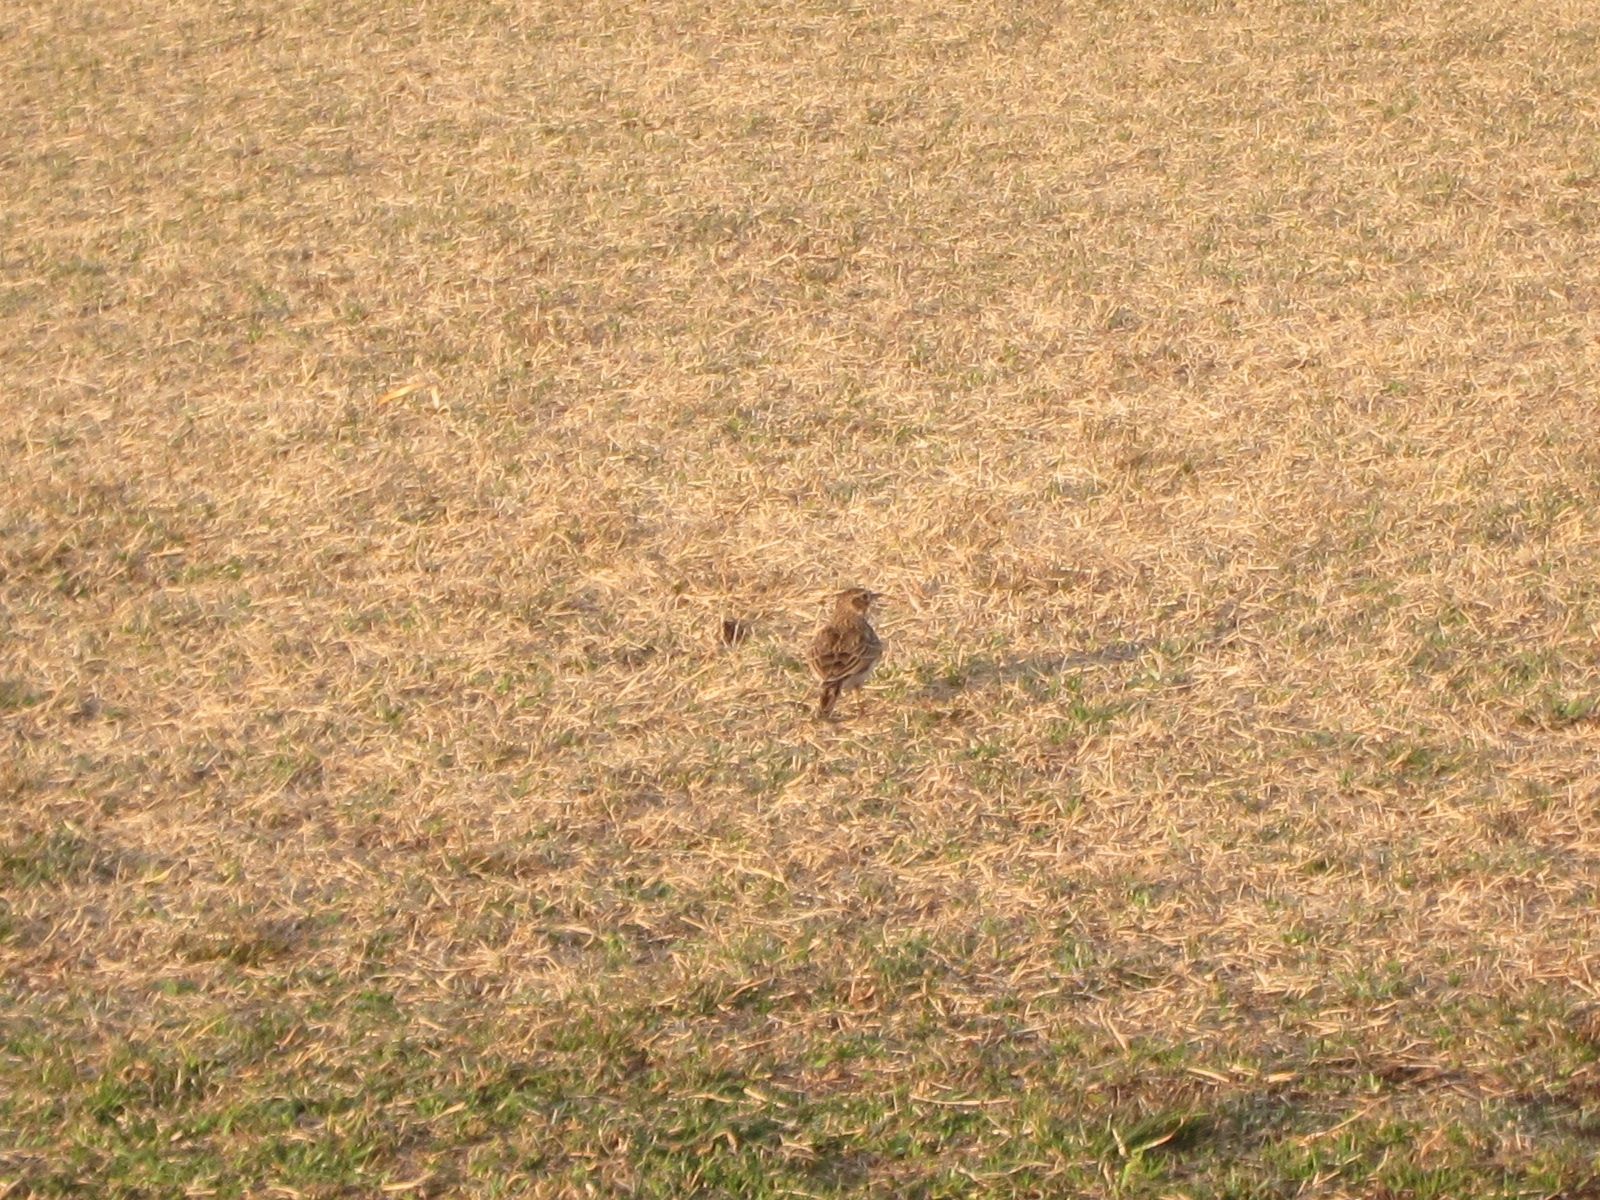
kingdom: Animalia
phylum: Chordata
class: Aves
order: Passeriformes
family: Alaudidae
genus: Alauda
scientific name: Alauda arvensis
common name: Eurasian skylark
